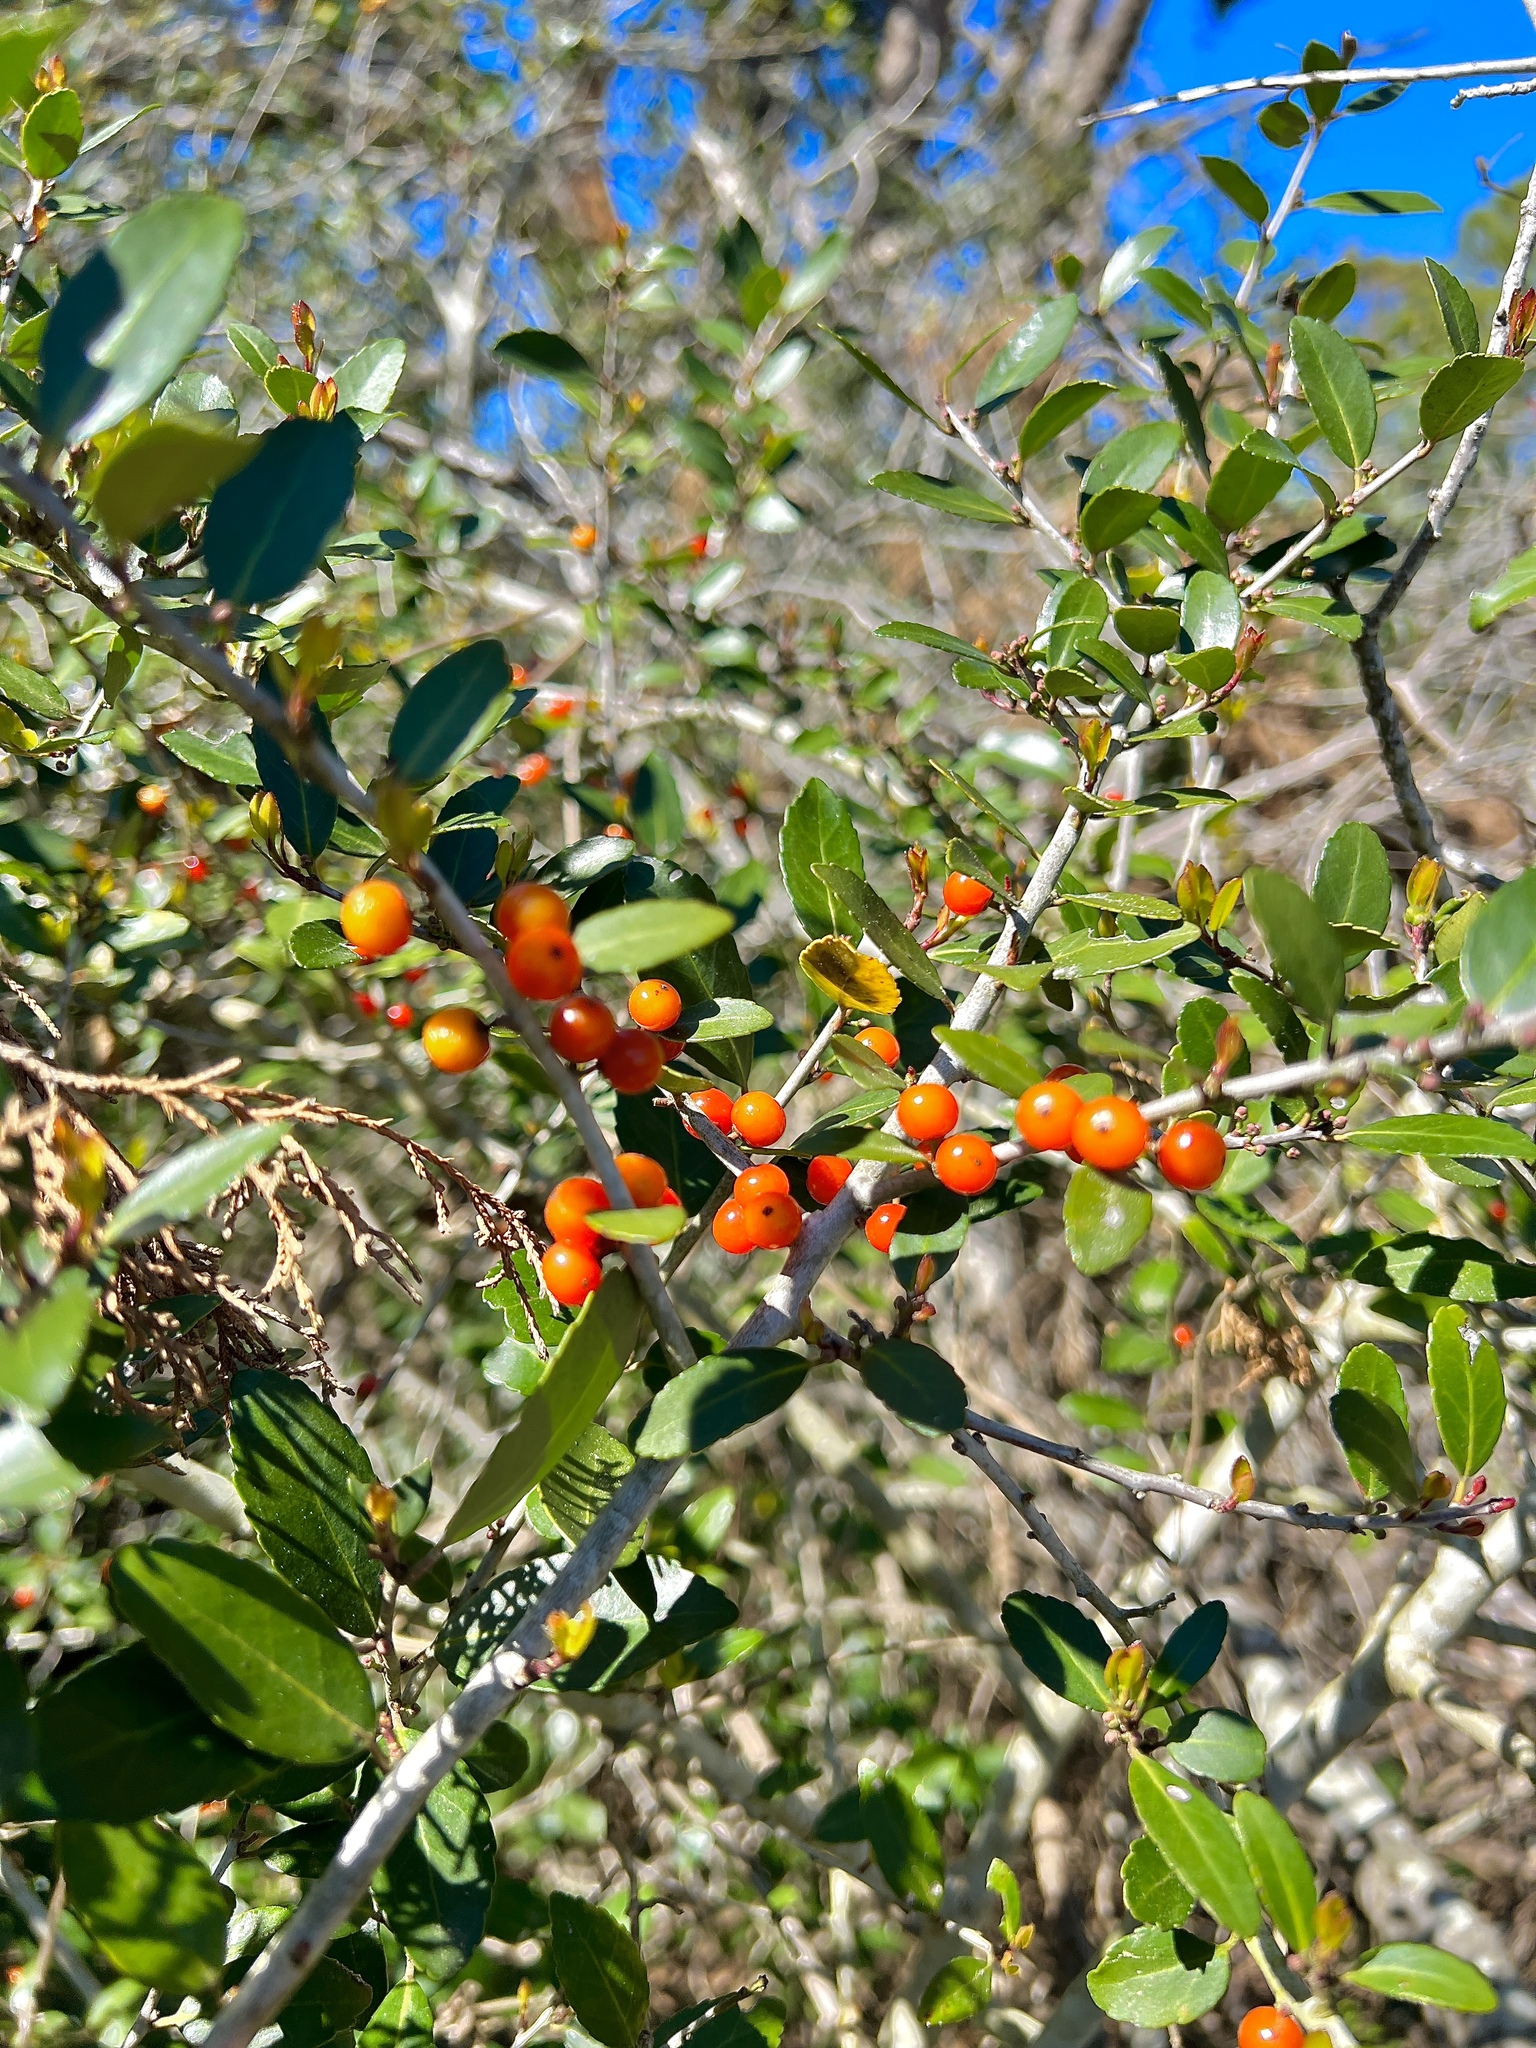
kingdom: Plantae
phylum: Tracheophyta
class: Magnoliopsida
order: Aquifoliales
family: Aquifoliaceae
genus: Ilex
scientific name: Ilex vomitoria
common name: Yaupon holly
